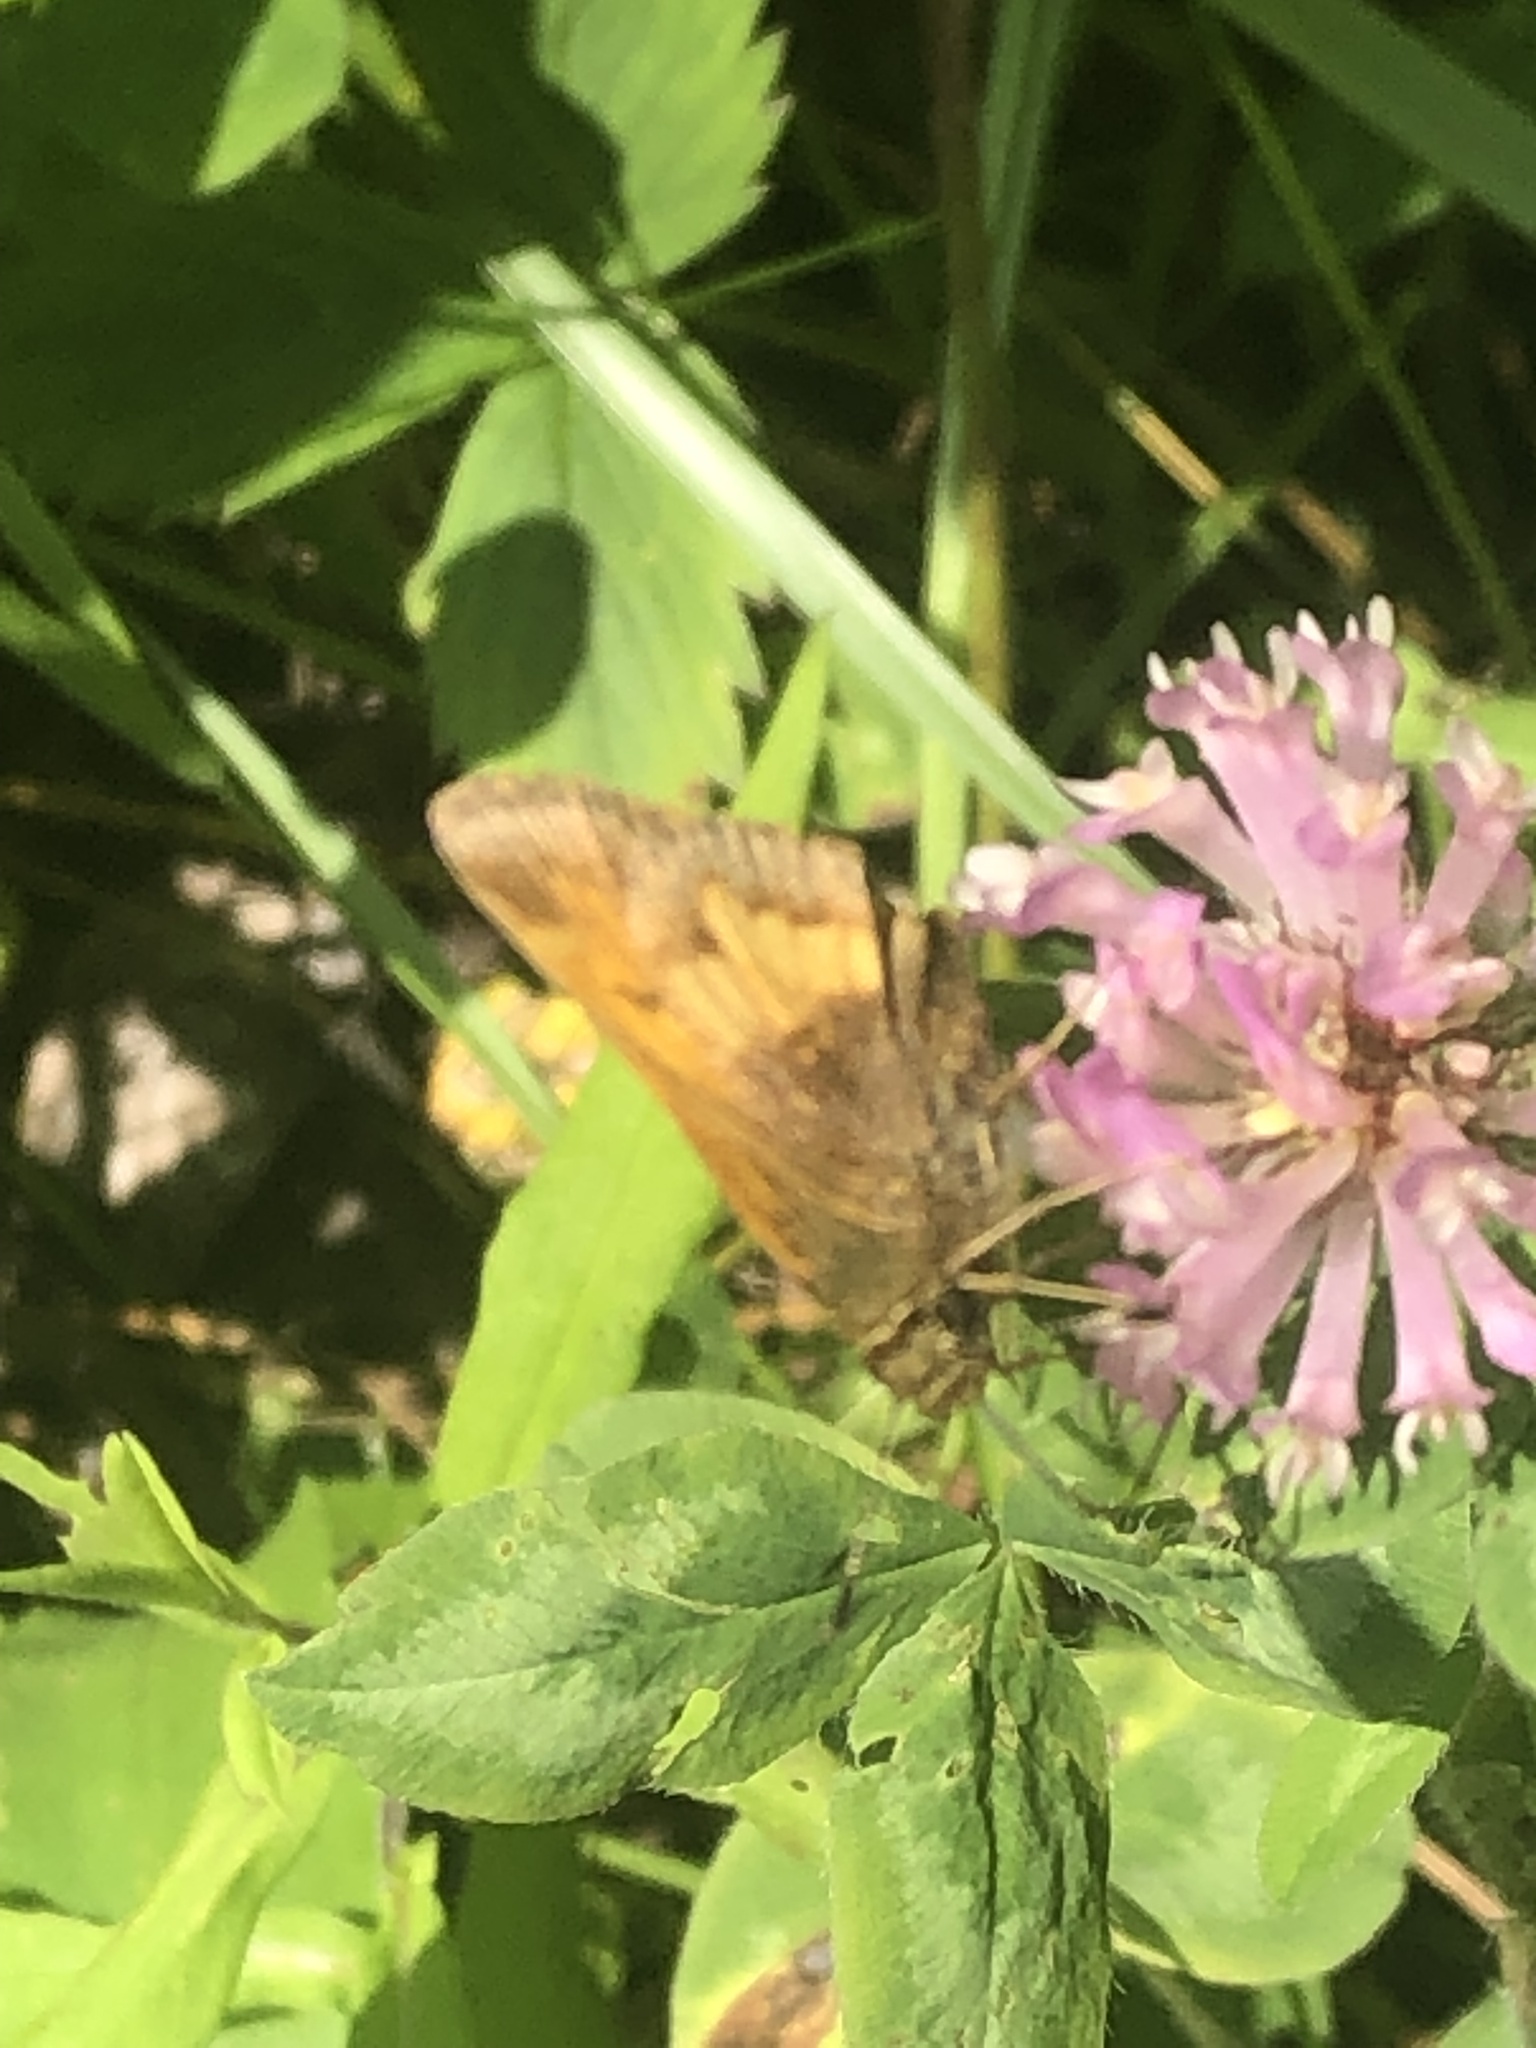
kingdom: Animalia
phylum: Arthropoda
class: Insecta
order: Lepidoptera
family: Hesperiidae
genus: Lon
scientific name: Lon hobomok
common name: Hobomok skipper
